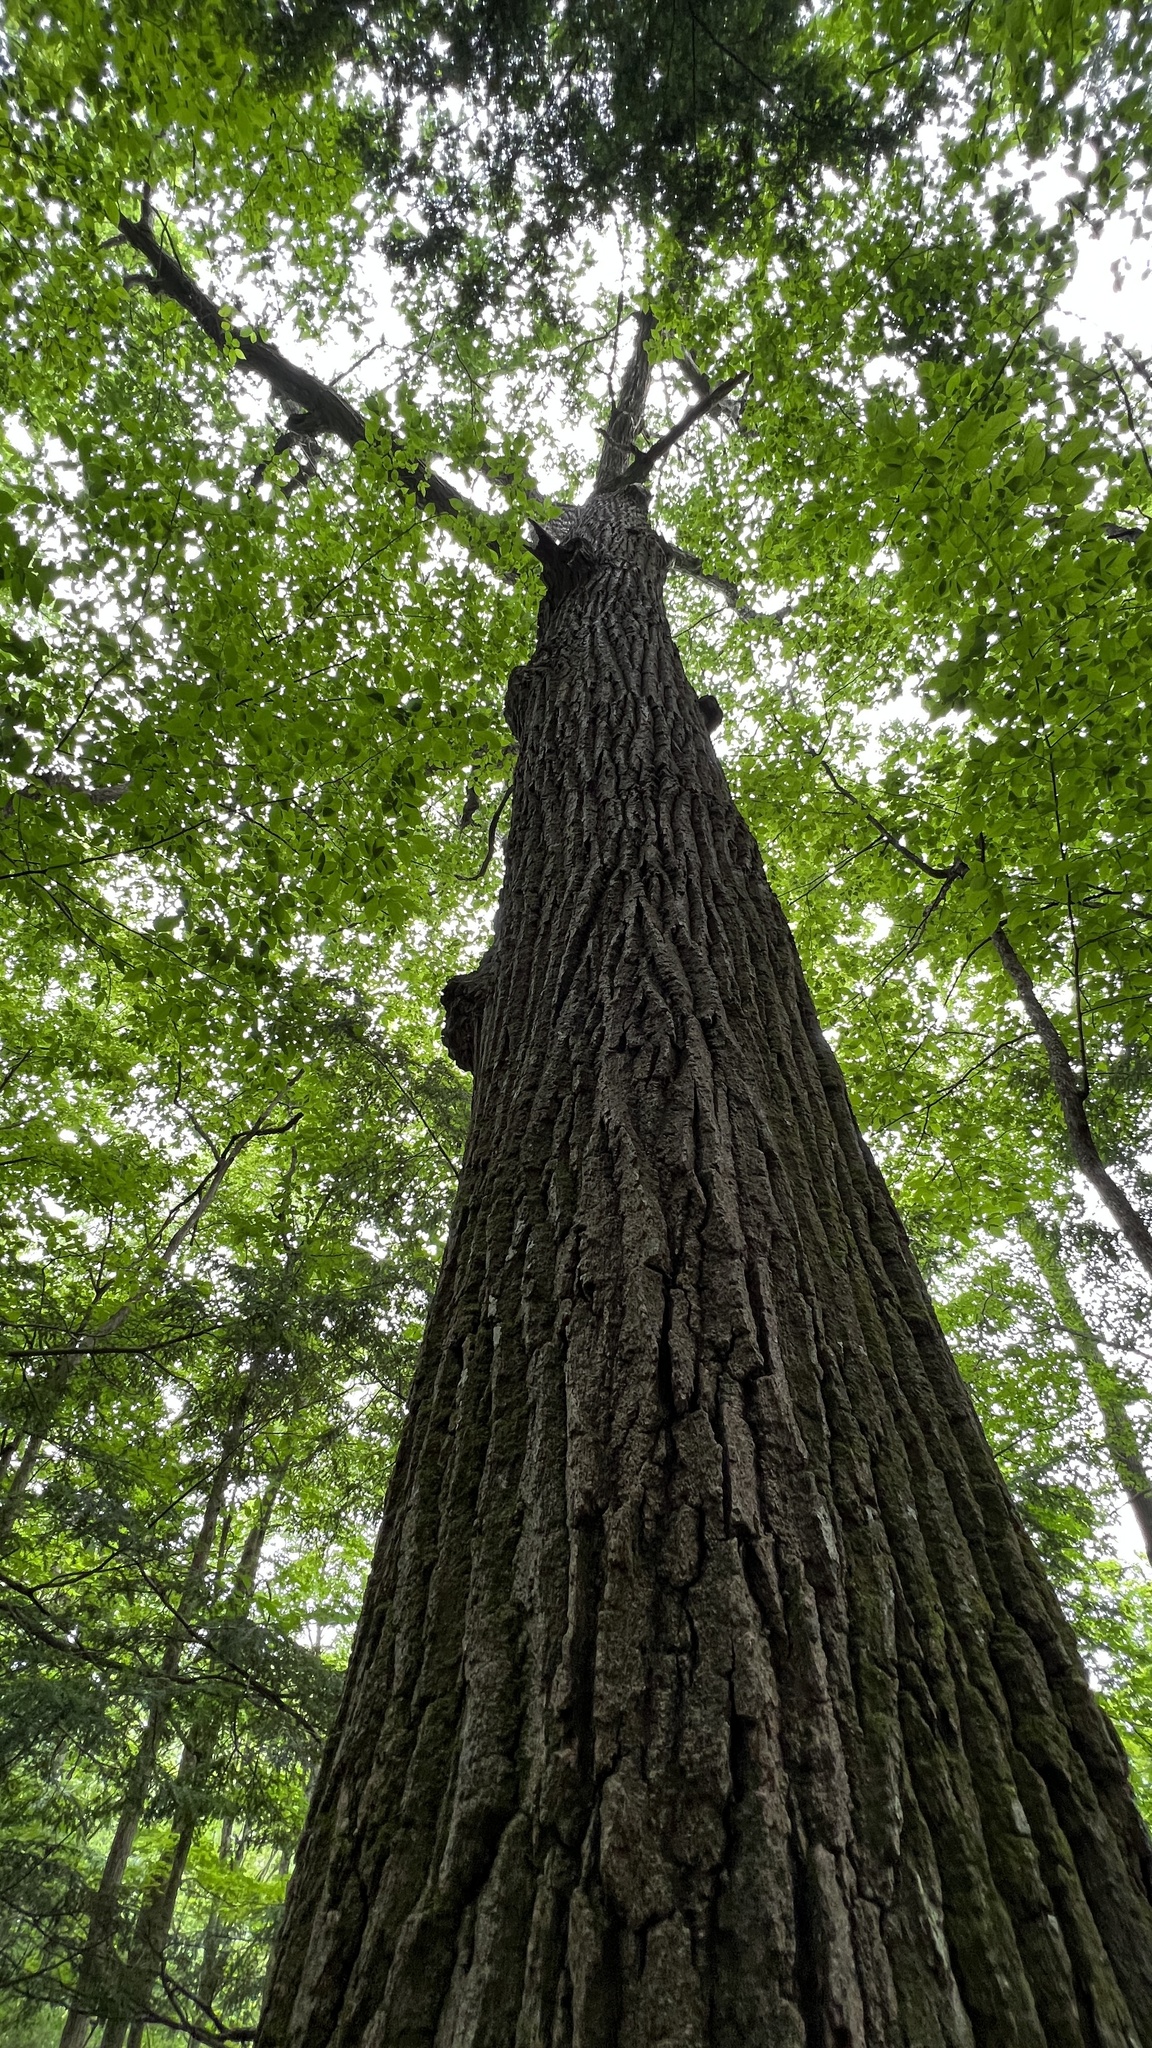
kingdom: Plantae
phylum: Tracheophyta
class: Magnoliopsida
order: Fagales
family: Fagaceae
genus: Quercus
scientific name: Quercus rubra
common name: Red oak
